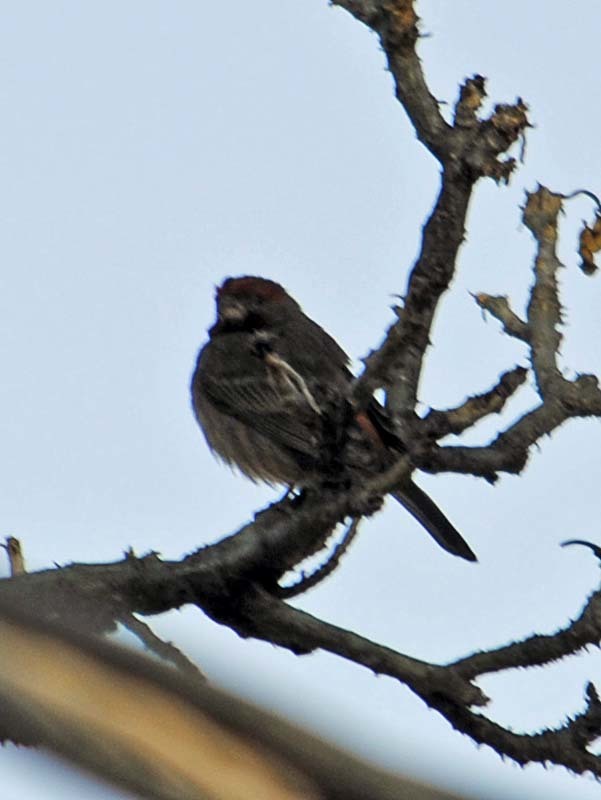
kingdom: Animalia
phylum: Chordata
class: Aves
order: Passeriformes
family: Fringillidae
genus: Haemorhous
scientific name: Haemorhous mexicanus
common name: House finch
